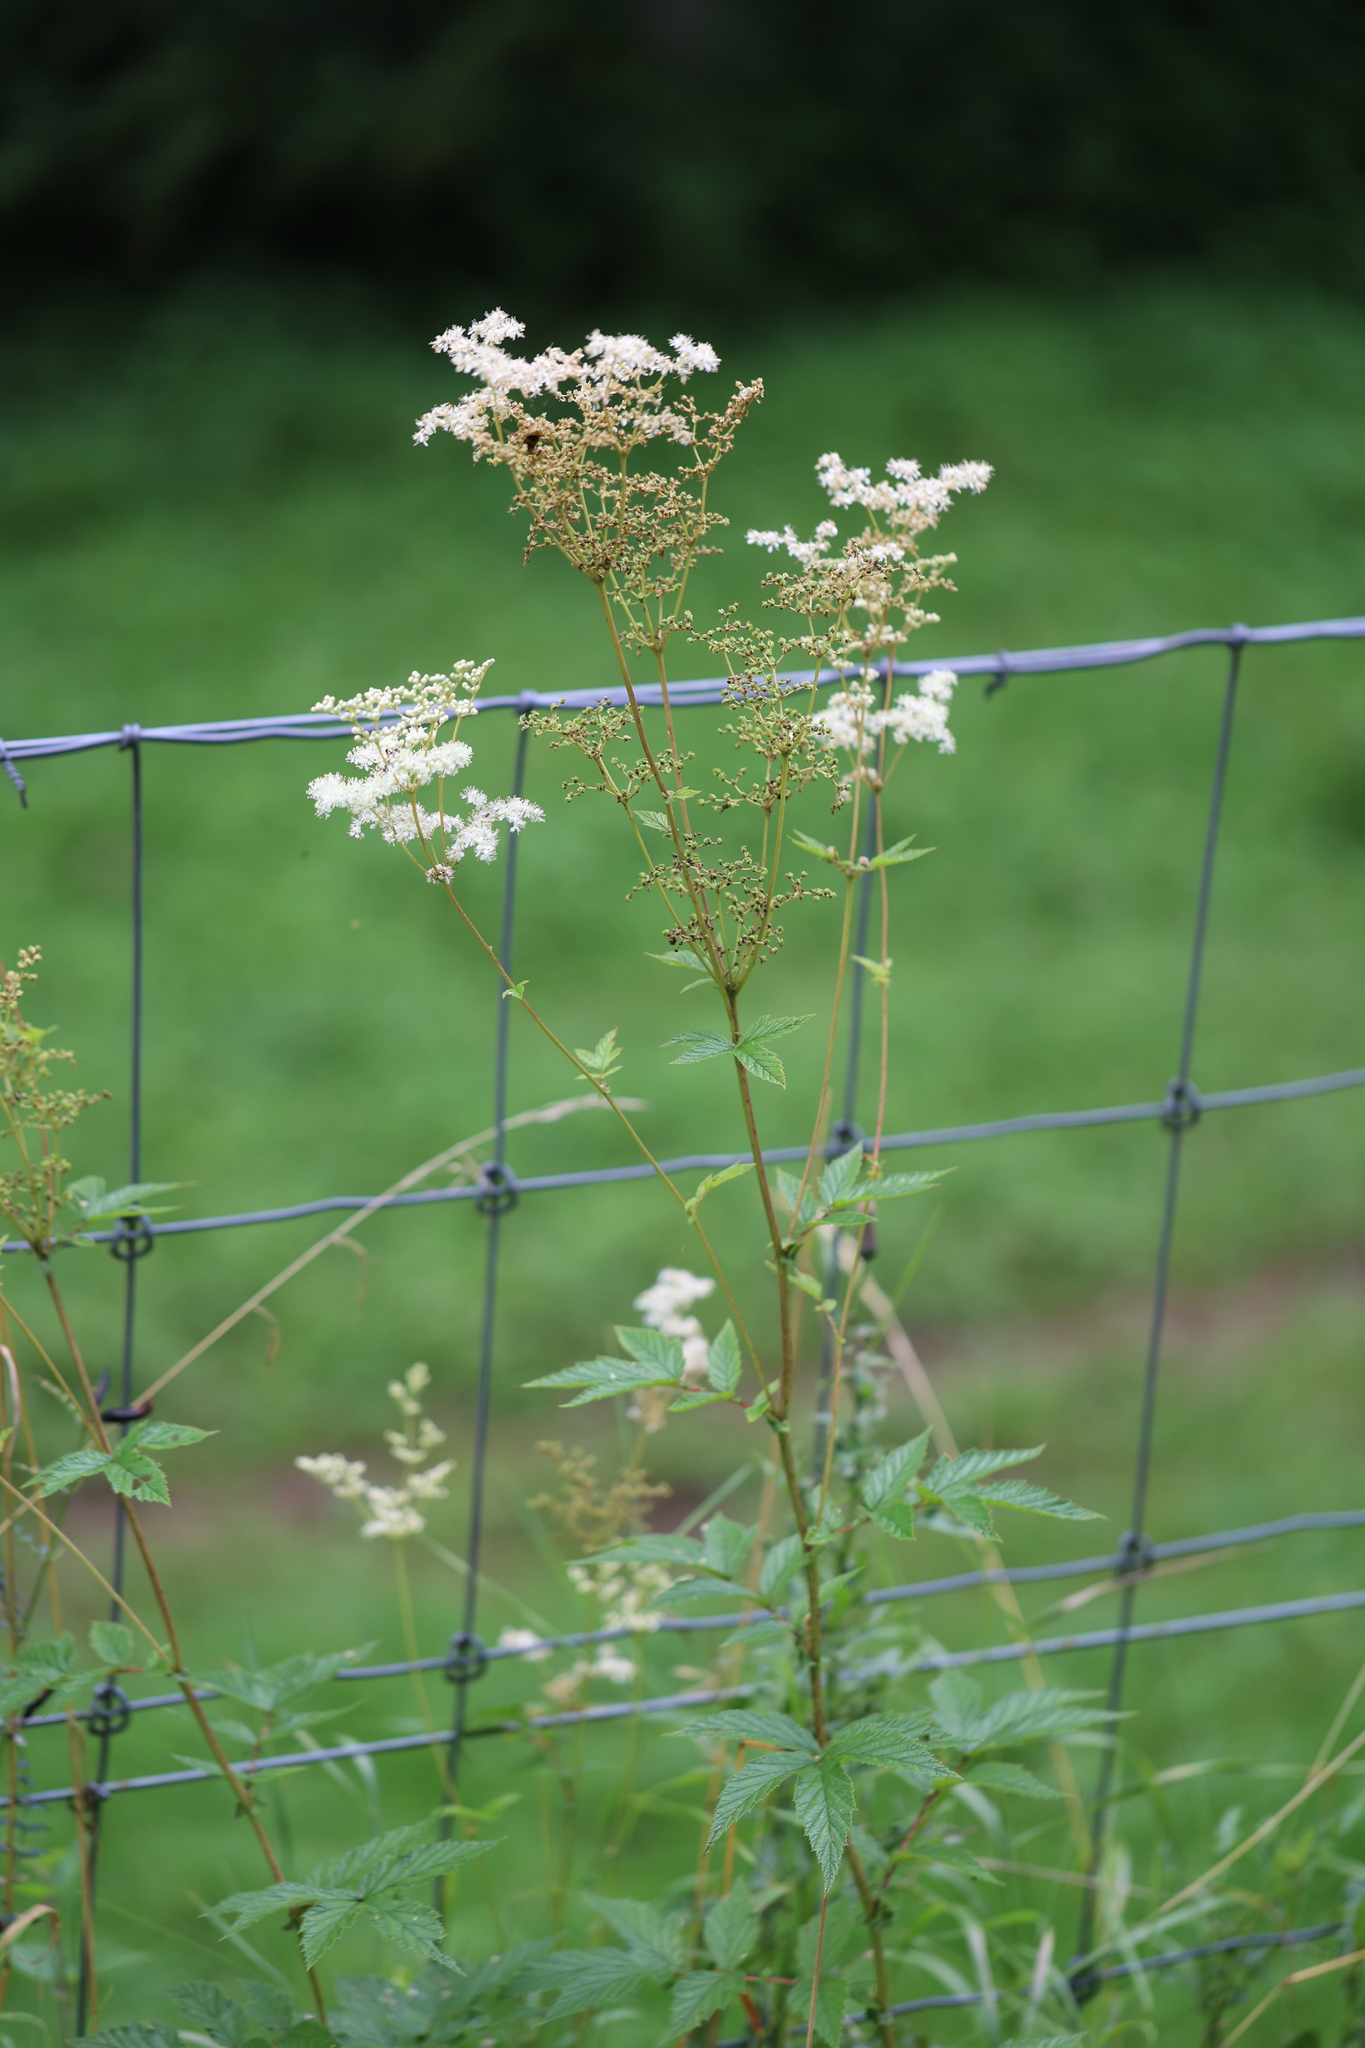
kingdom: Plantae
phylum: Tracheophyta
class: Magnoliopsida
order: Rosales
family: Rosaceae
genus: Filipendula
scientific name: Filipendula ulmaria
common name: Meadowsweet
